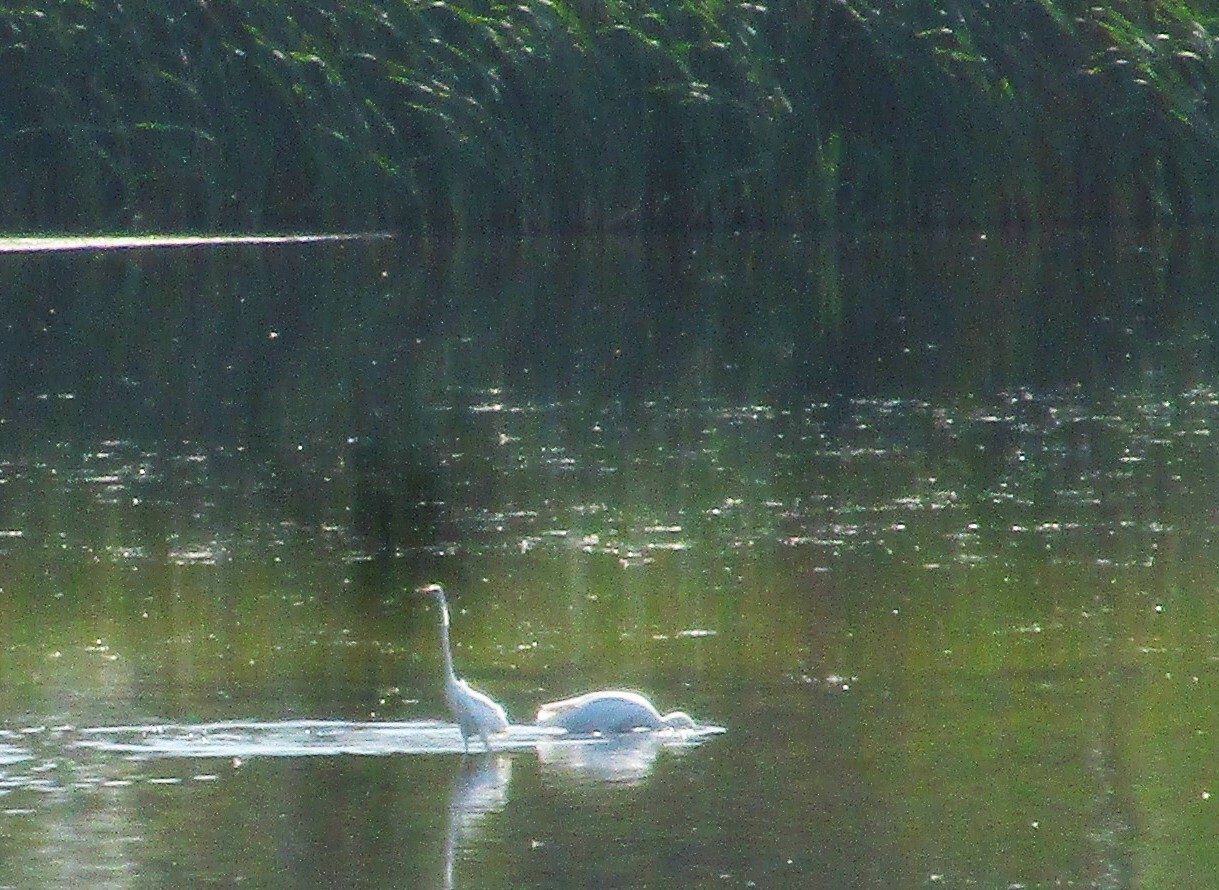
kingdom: Animalia
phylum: Chordata
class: Aves
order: Pelecaniformes
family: Ardeidae
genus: Ardea
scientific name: Ardea alba
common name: Great egret
